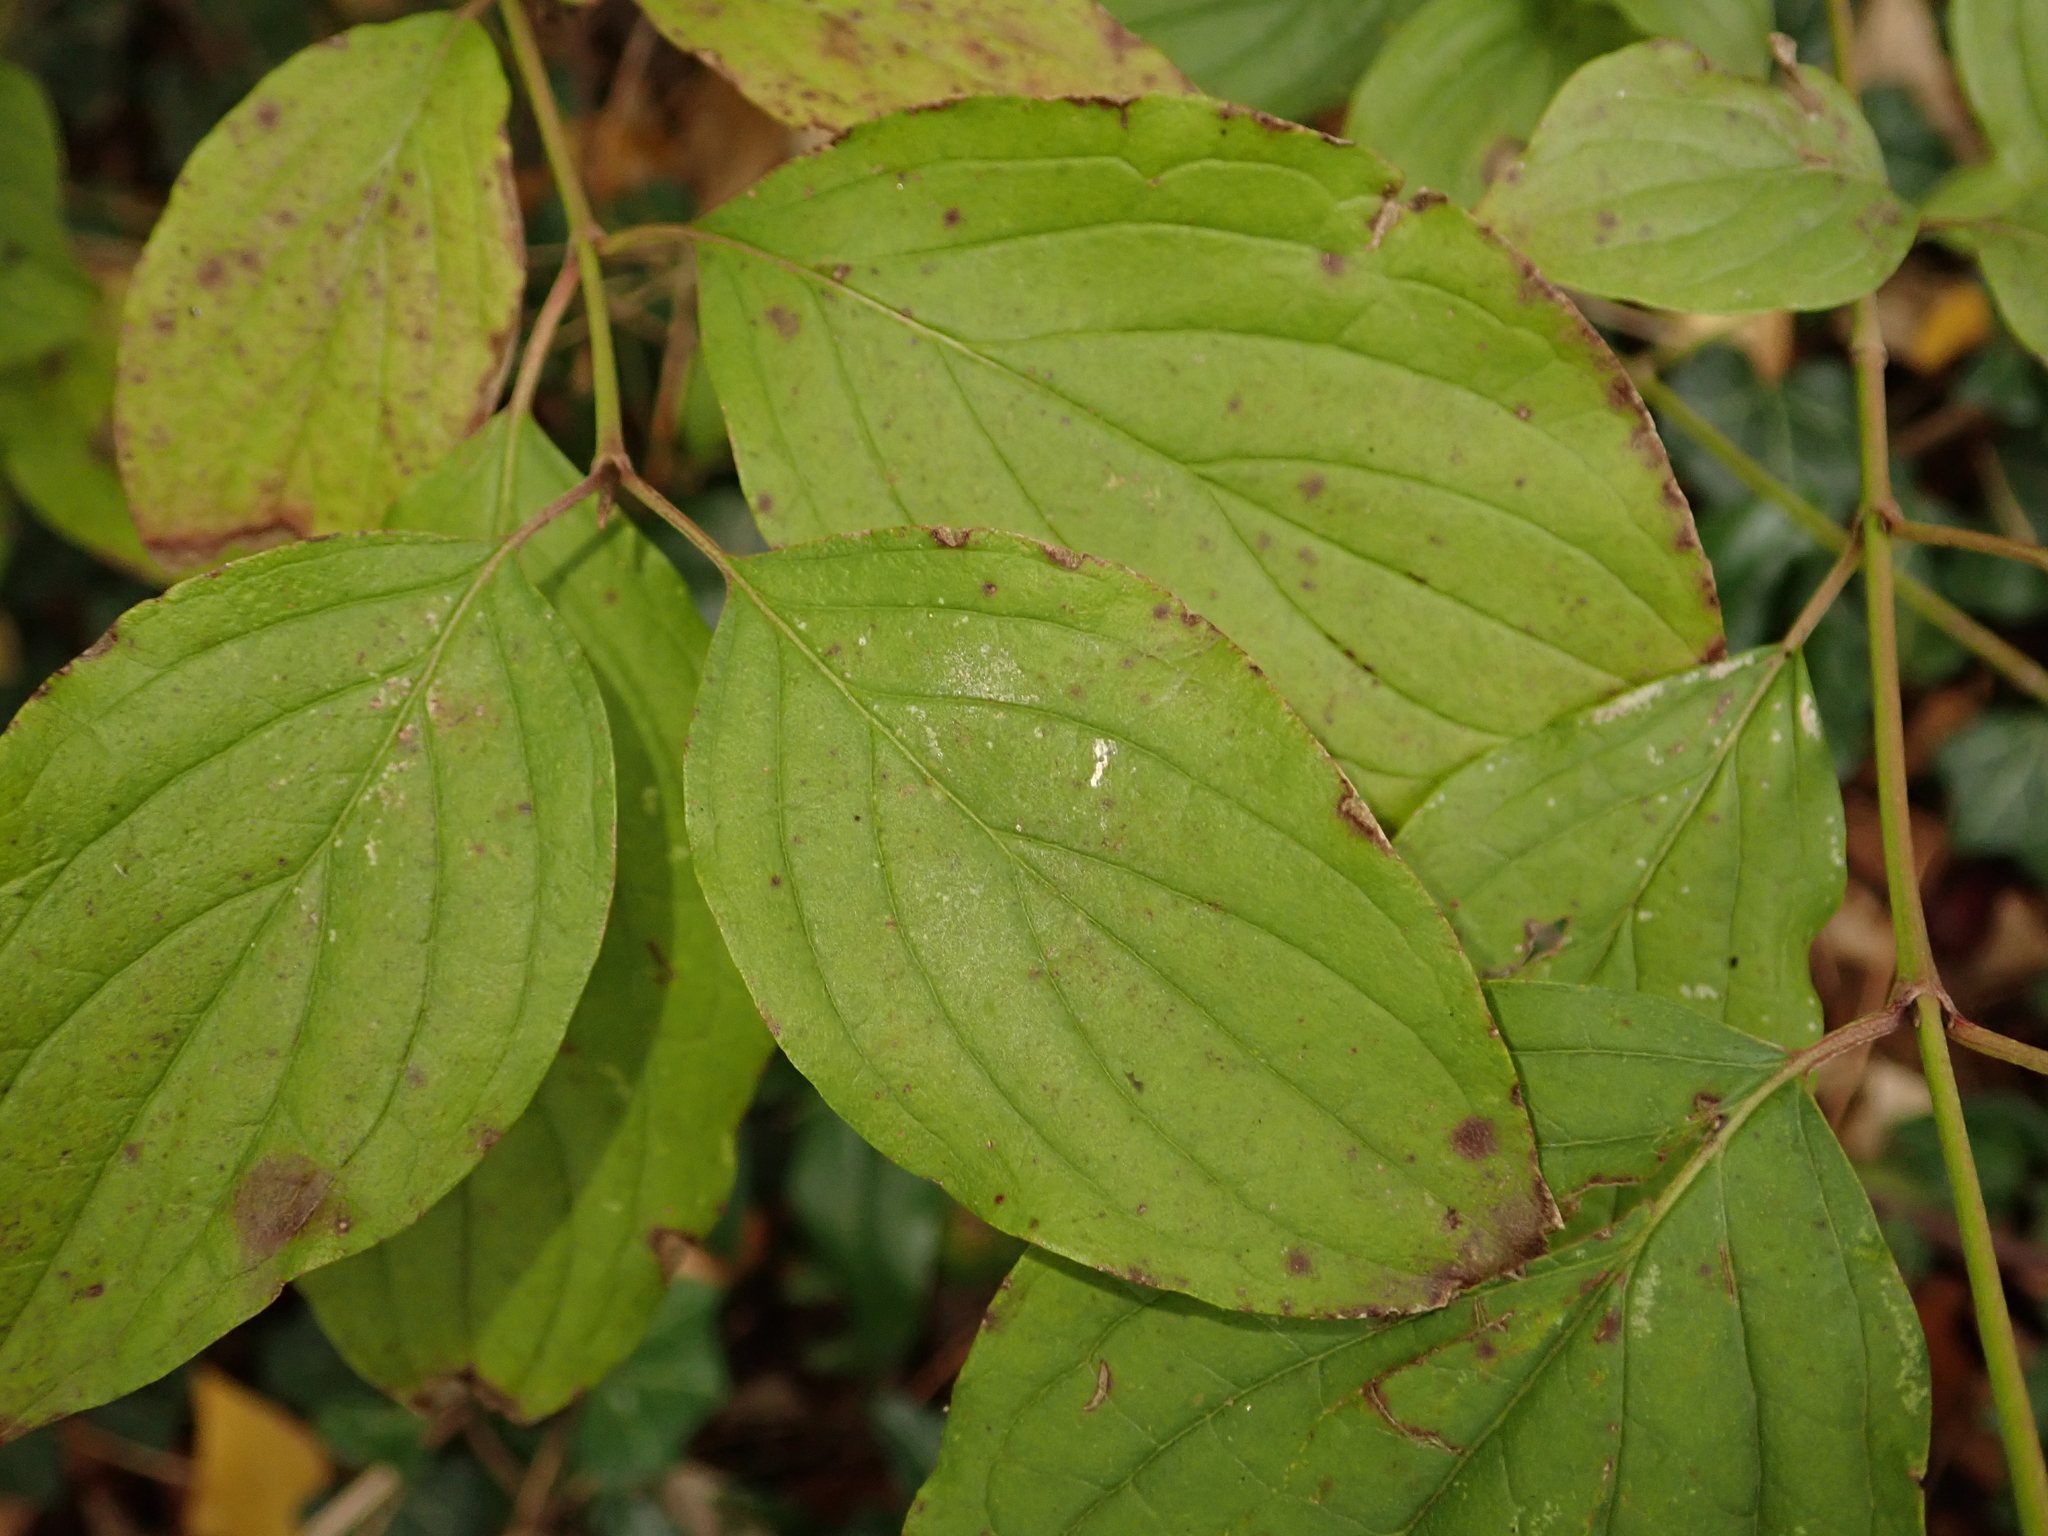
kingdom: Plantae
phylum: Tracheophyta
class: Magnoliopsida
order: Cornales
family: Cornaceae
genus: Cornus
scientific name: Cornus sanguinea
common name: Dogwood
